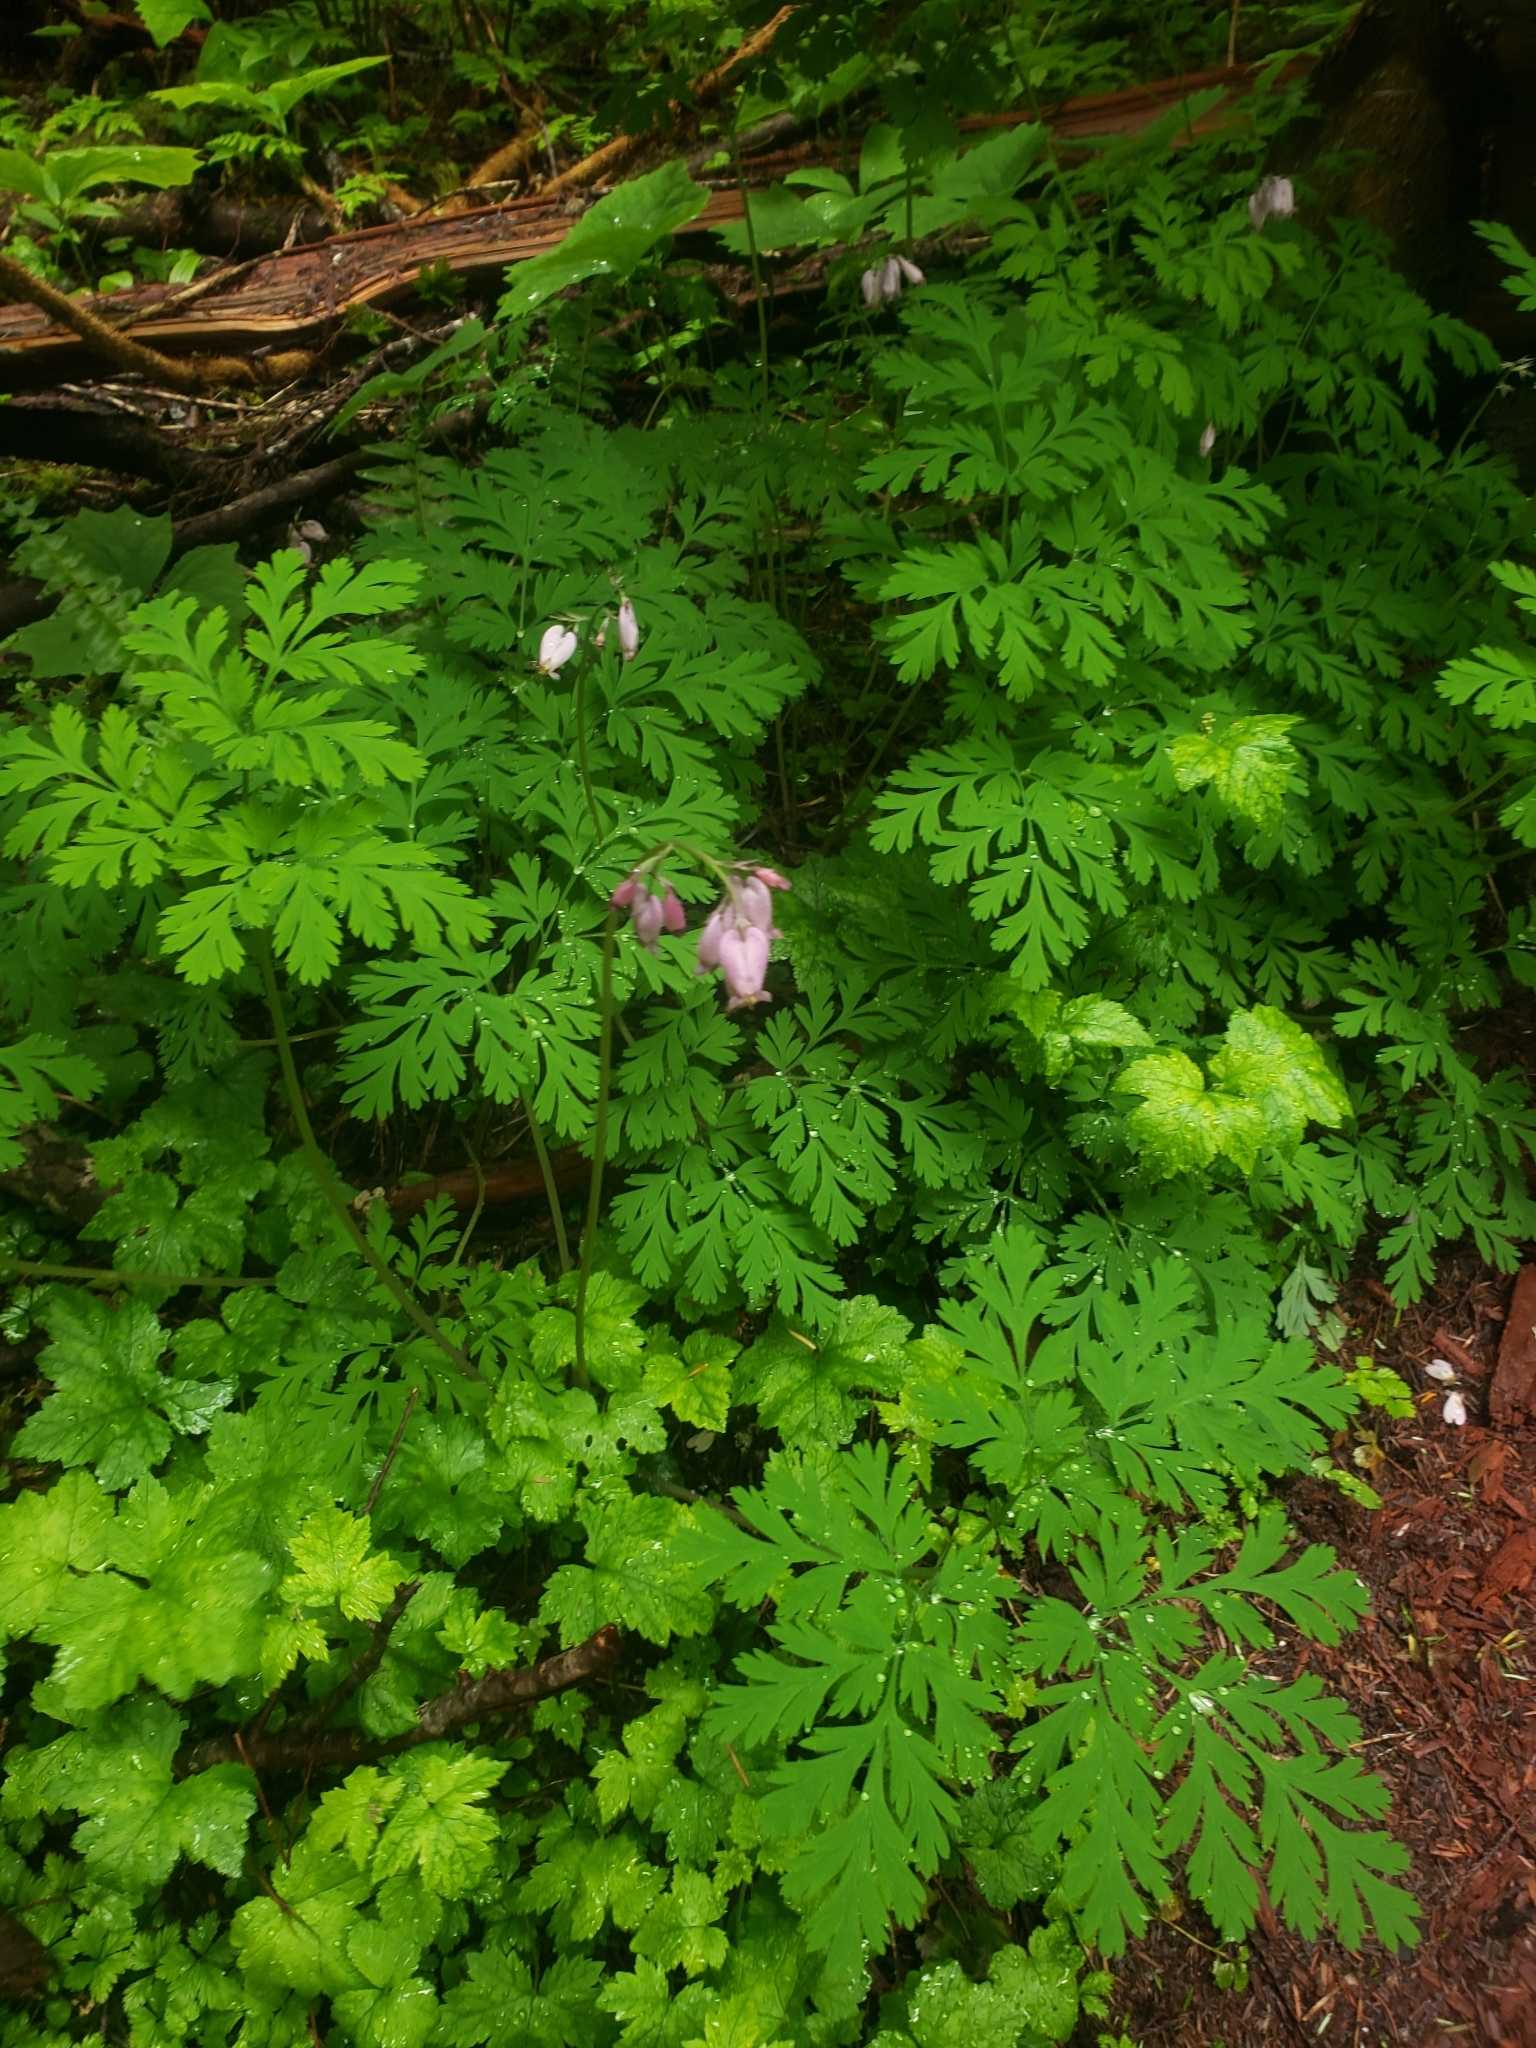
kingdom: Plantae
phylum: Tracheophyta
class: Magnoliopsida
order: Ranunculales
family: Papaveraceae
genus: Dicentra
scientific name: Dicentra formosa
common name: Bleeding-heart
